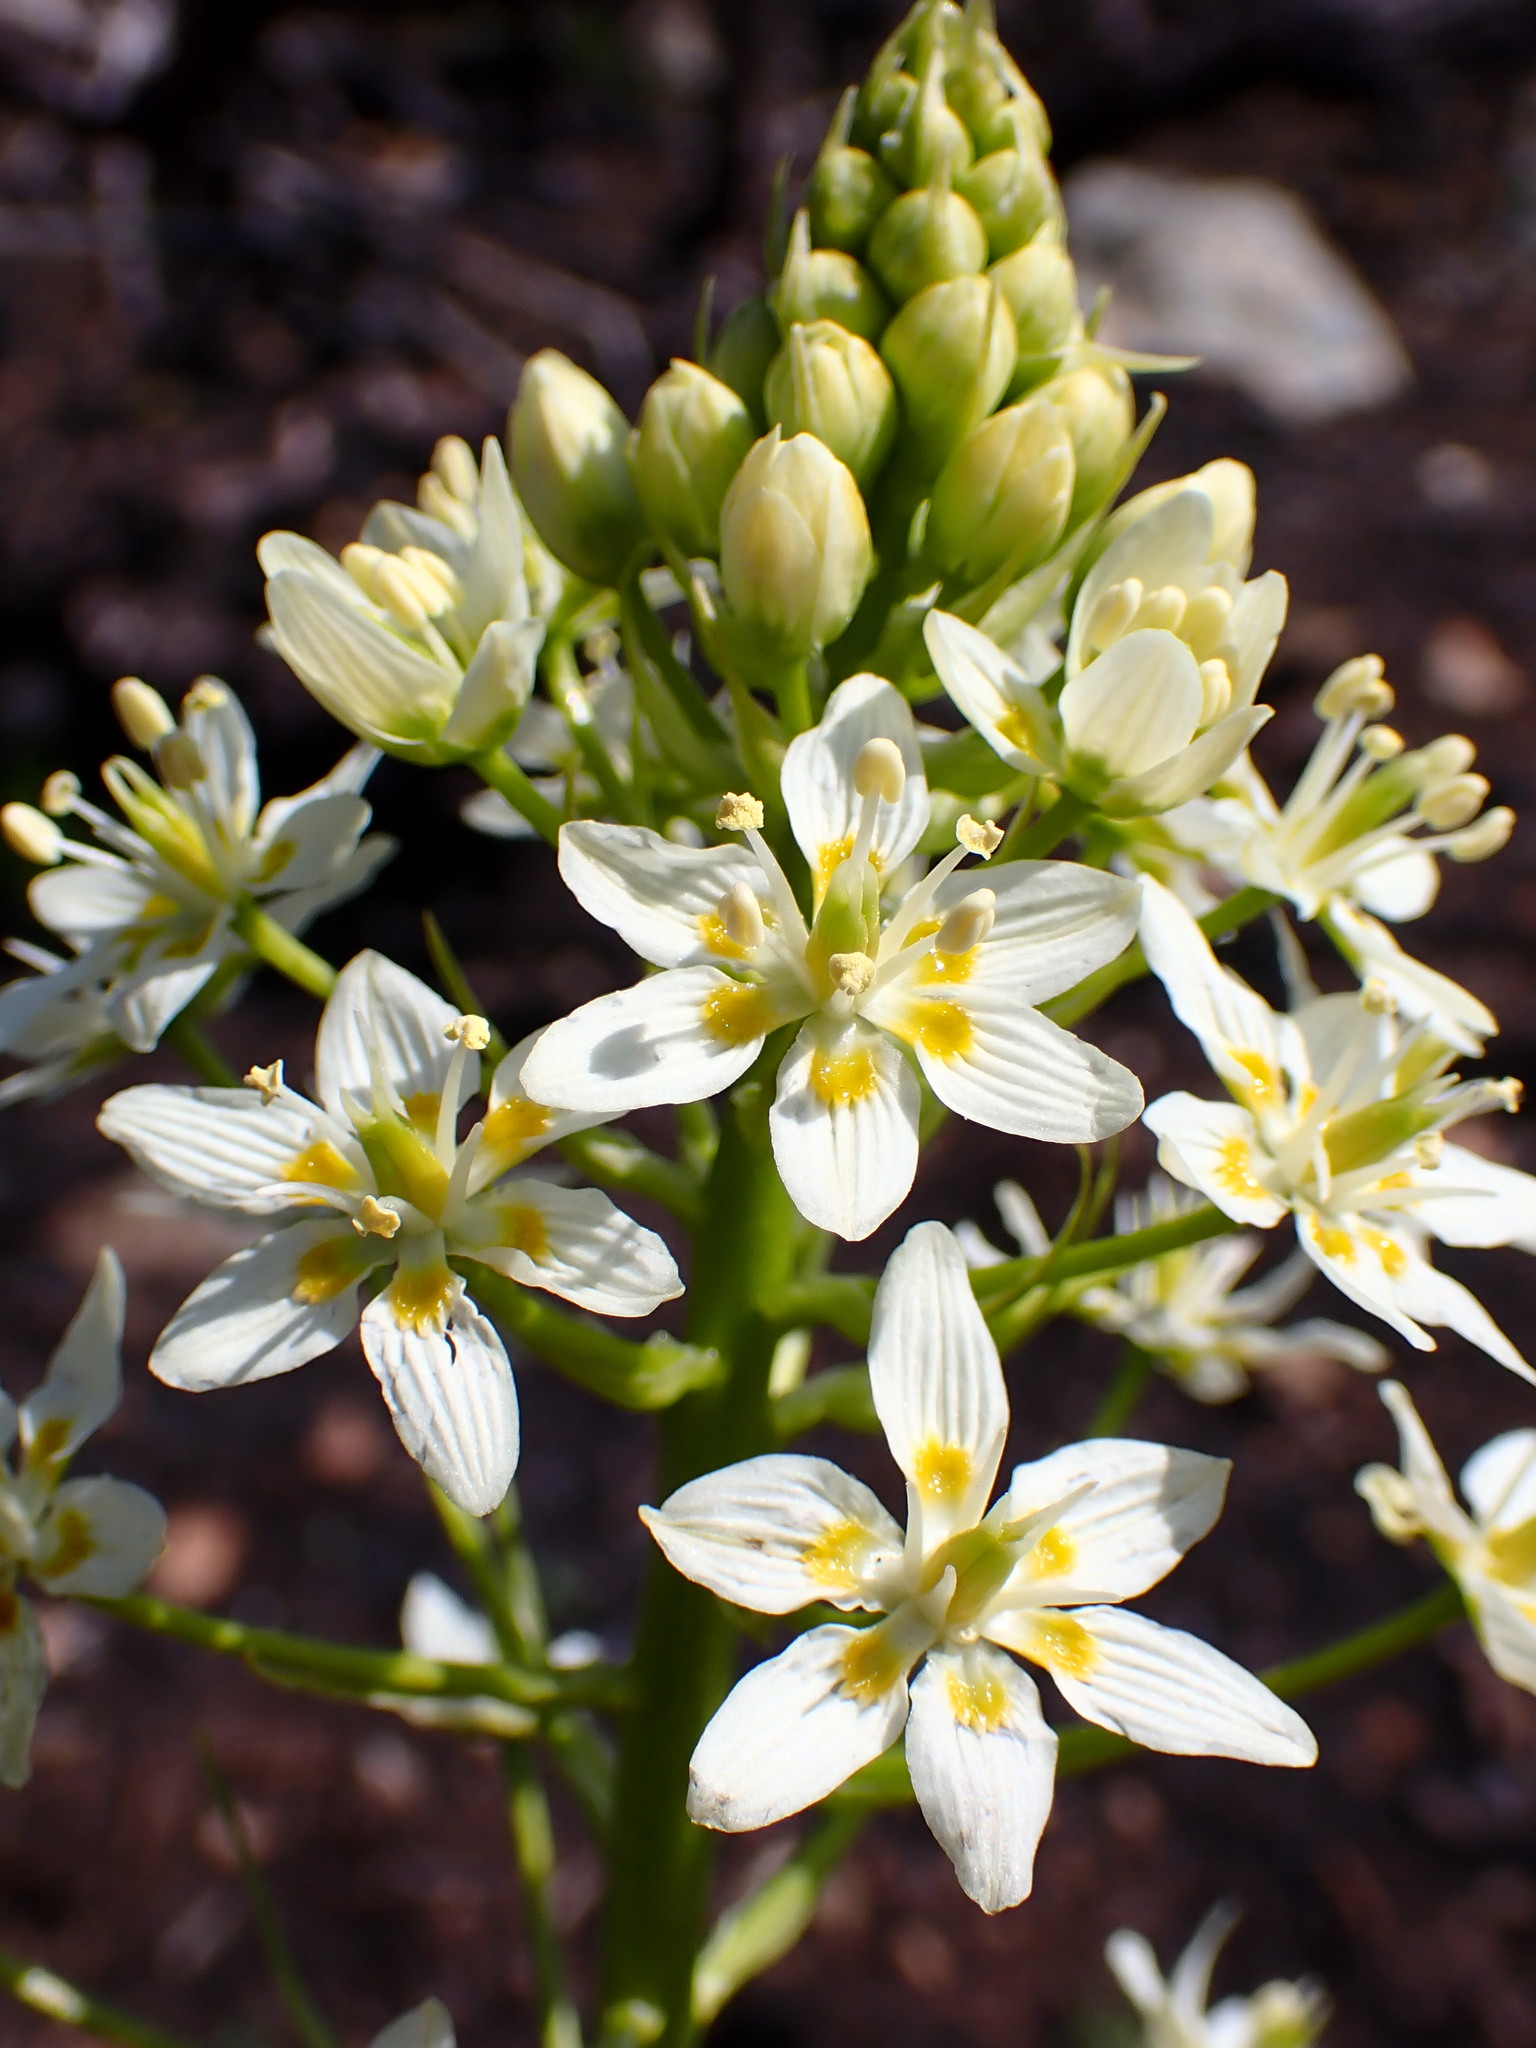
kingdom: Plantae
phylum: Tracheophyta
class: Liliopsida
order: Liliales
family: Melanthiaceae
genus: Toxicoscordion
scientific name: Toxicoscordion fremontii
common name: Fremont's death camas
